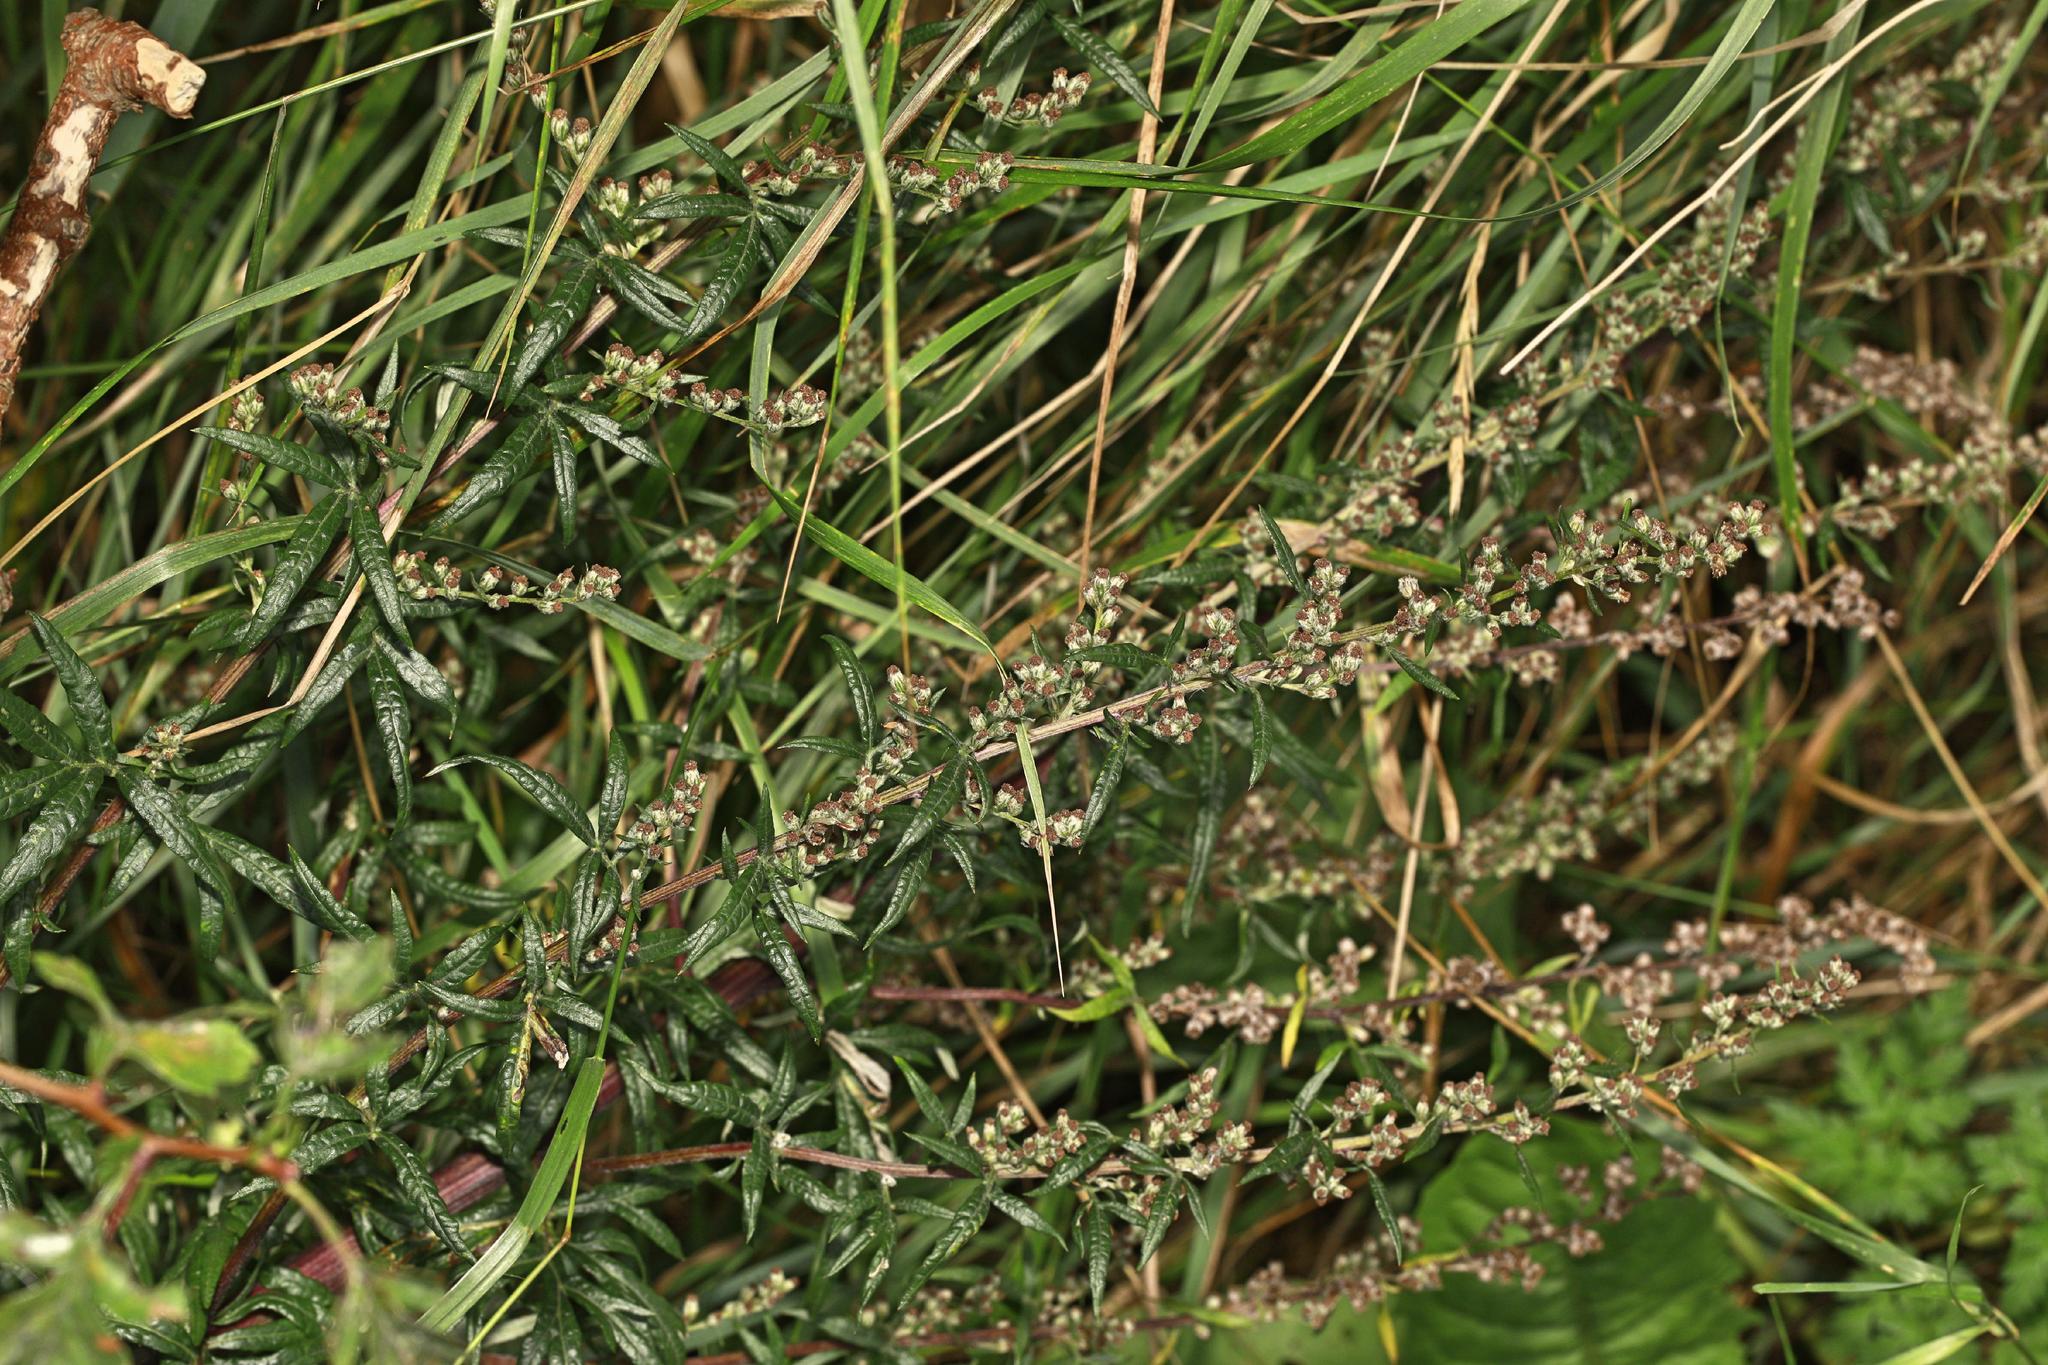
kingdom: Plantae
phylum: Tracheophyta
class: Magnoliopsida
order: Asterales
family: Asteraceae
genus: Artemisia
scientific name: Artemisia vulgaris
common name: Mugwort
